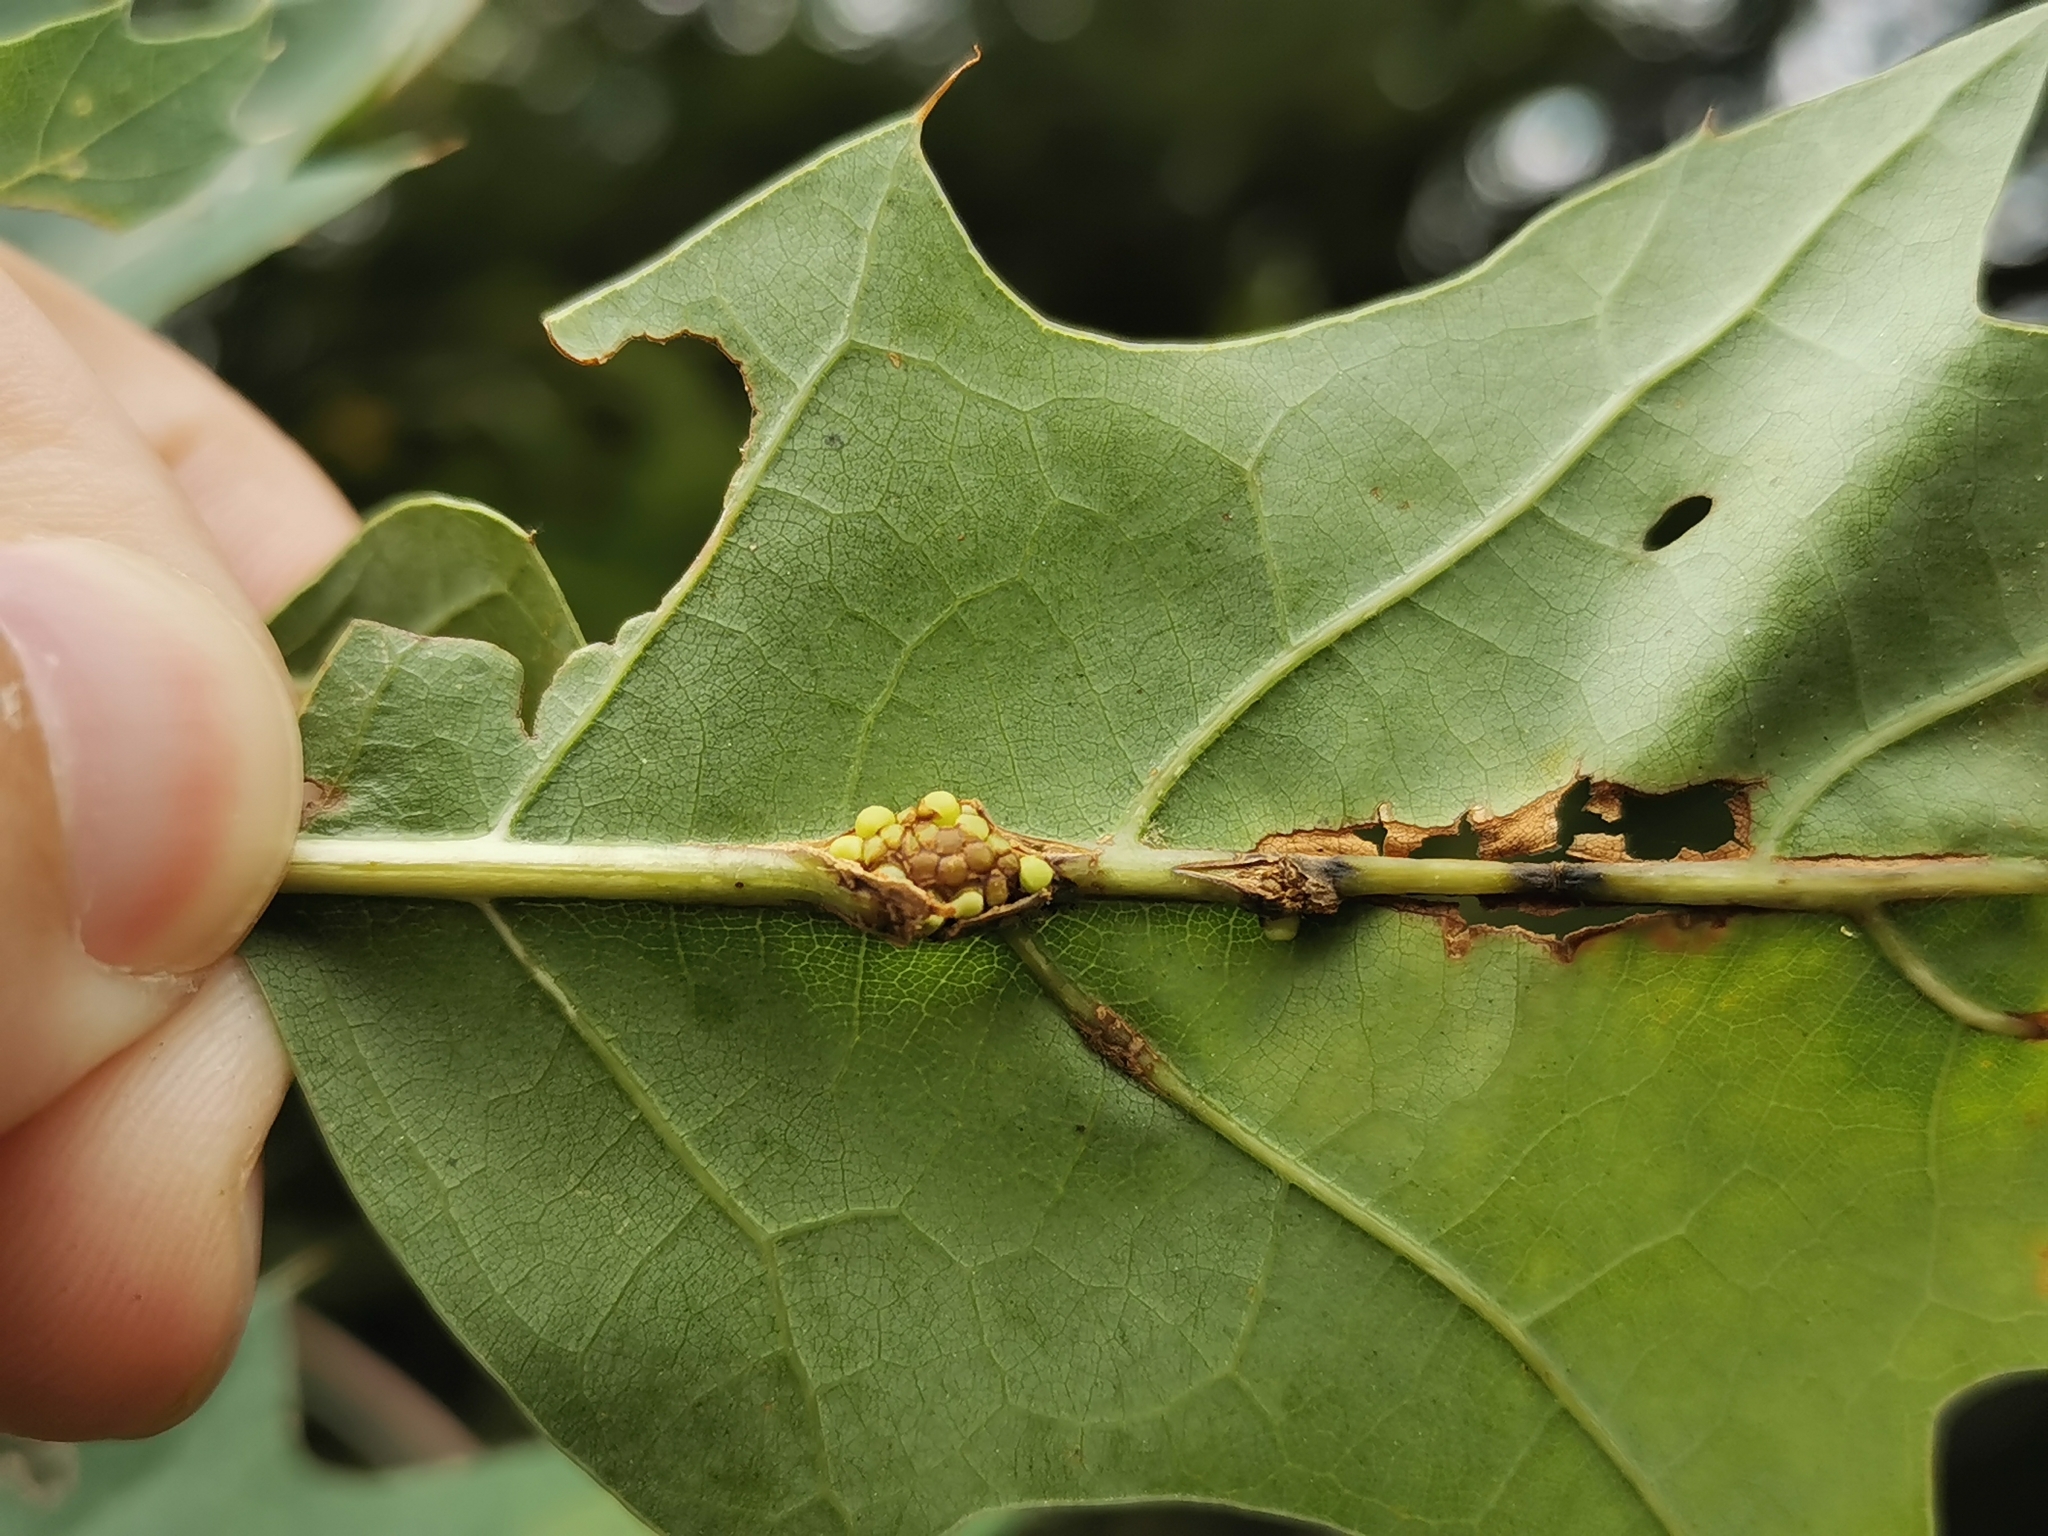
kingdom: Animalia
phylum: Arthropoda
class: Insecta
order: Hymenoptera
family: Cynipidae
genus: Kokkocynips
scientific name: Kokkocynips decidua
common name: Oak wheat gall
